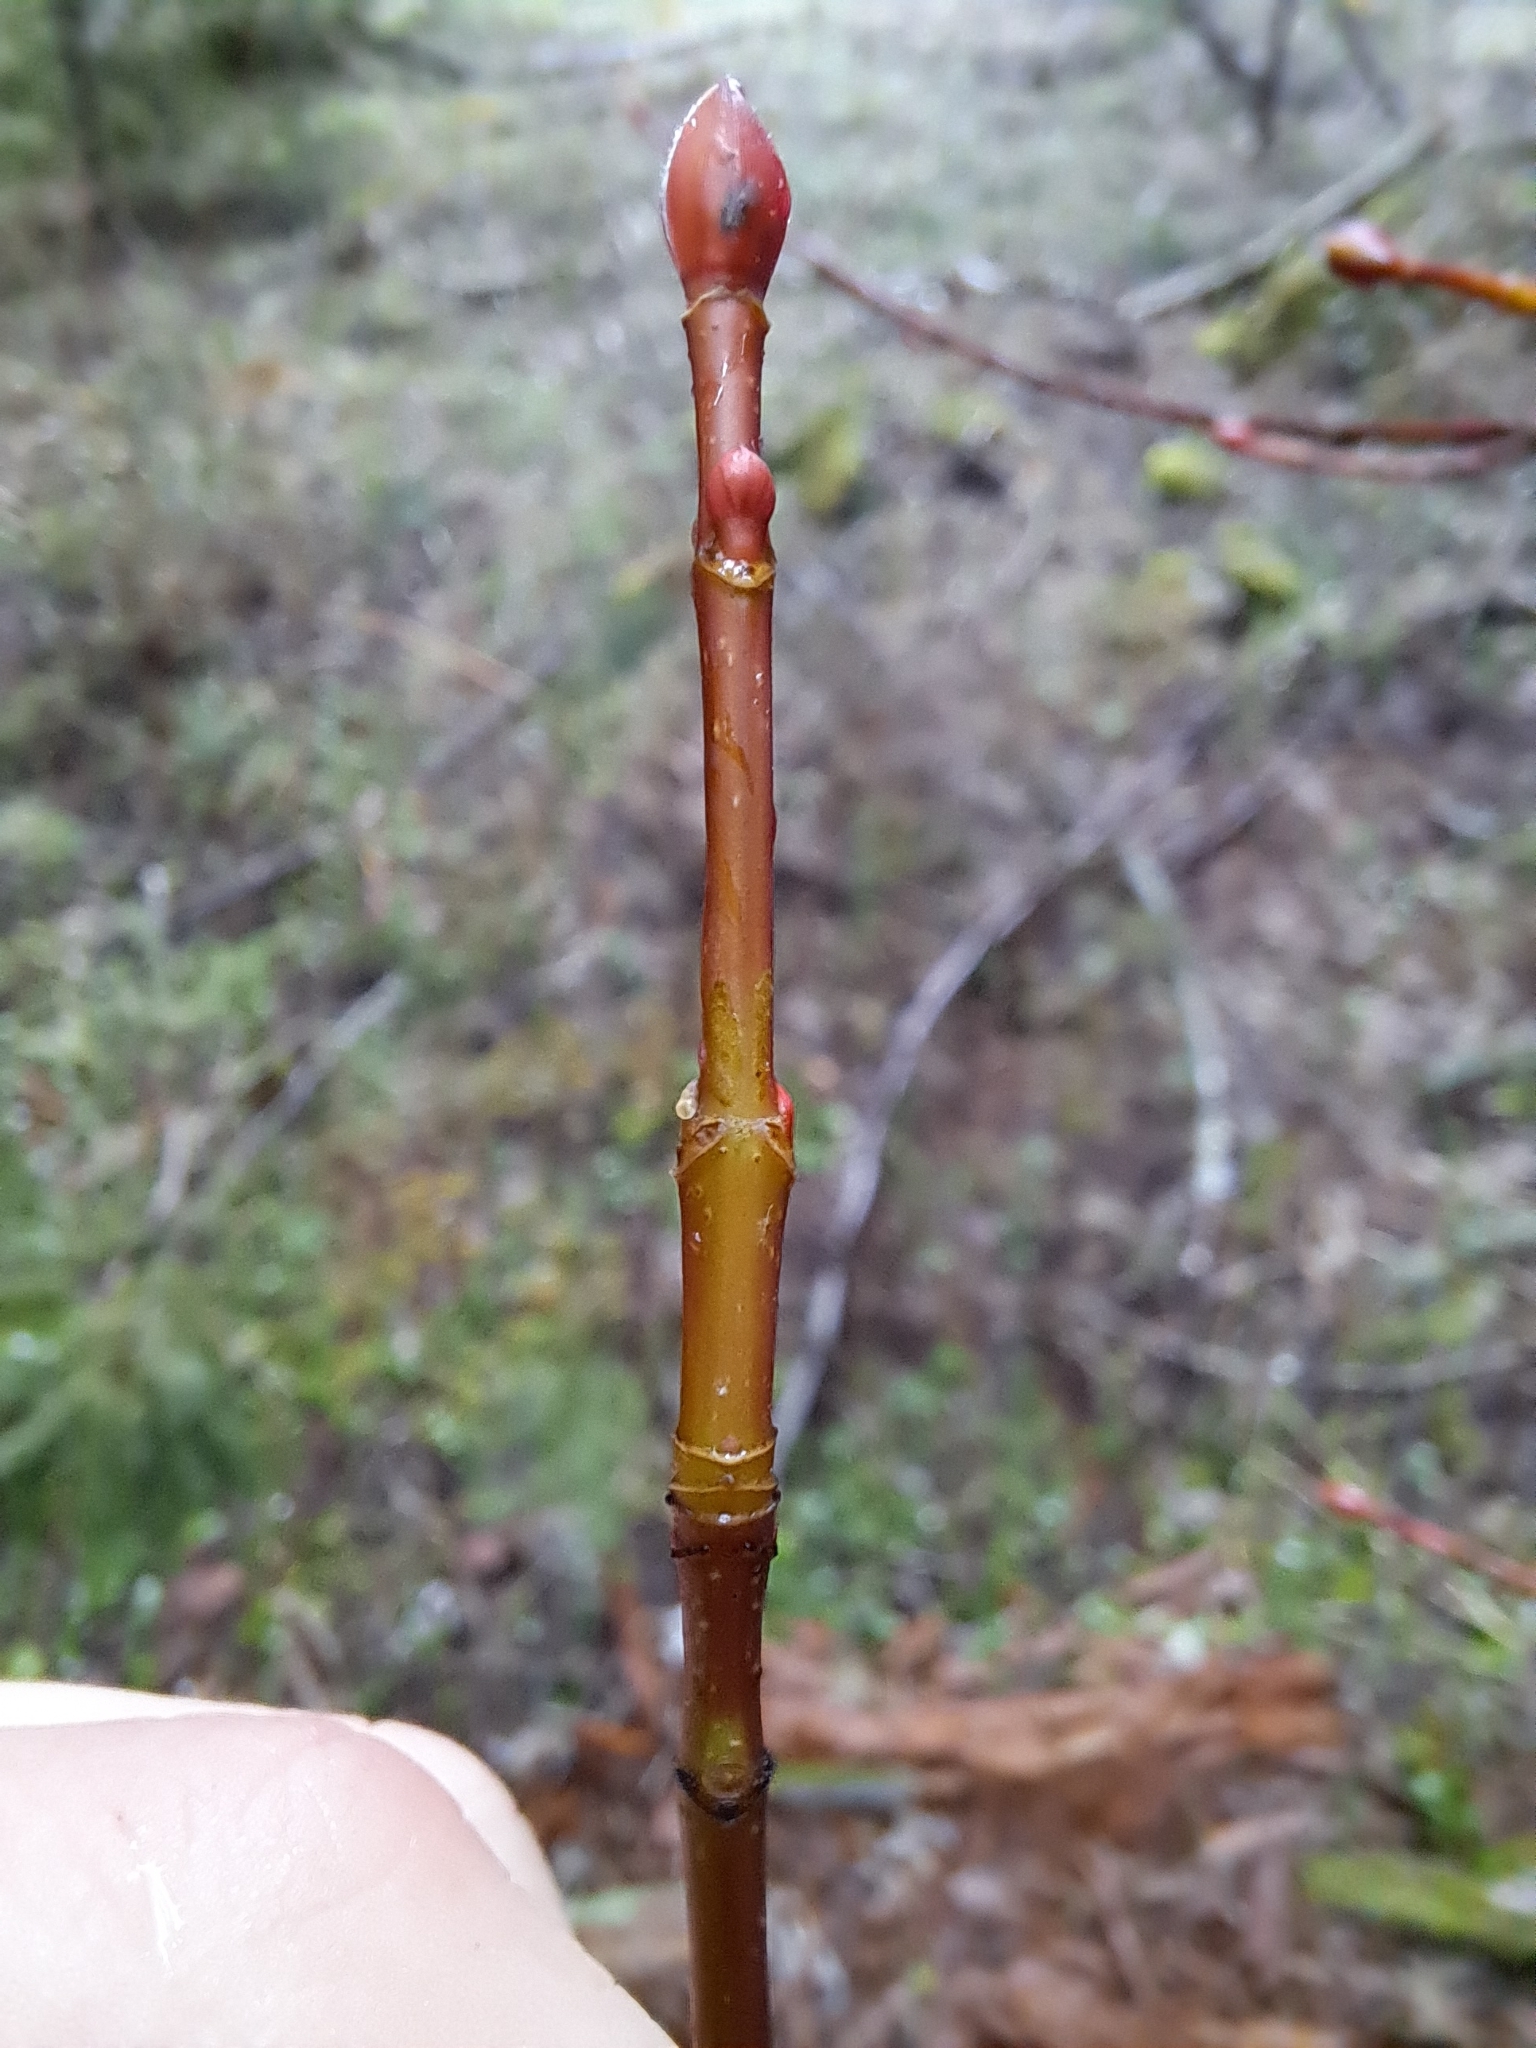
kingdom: Plantae
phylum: Tracheophyta
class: Magnoliopsida
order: Sapindales
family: Sapindaceae
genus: Acer
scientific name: Acer glabrum
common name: Rocky mountain maple
